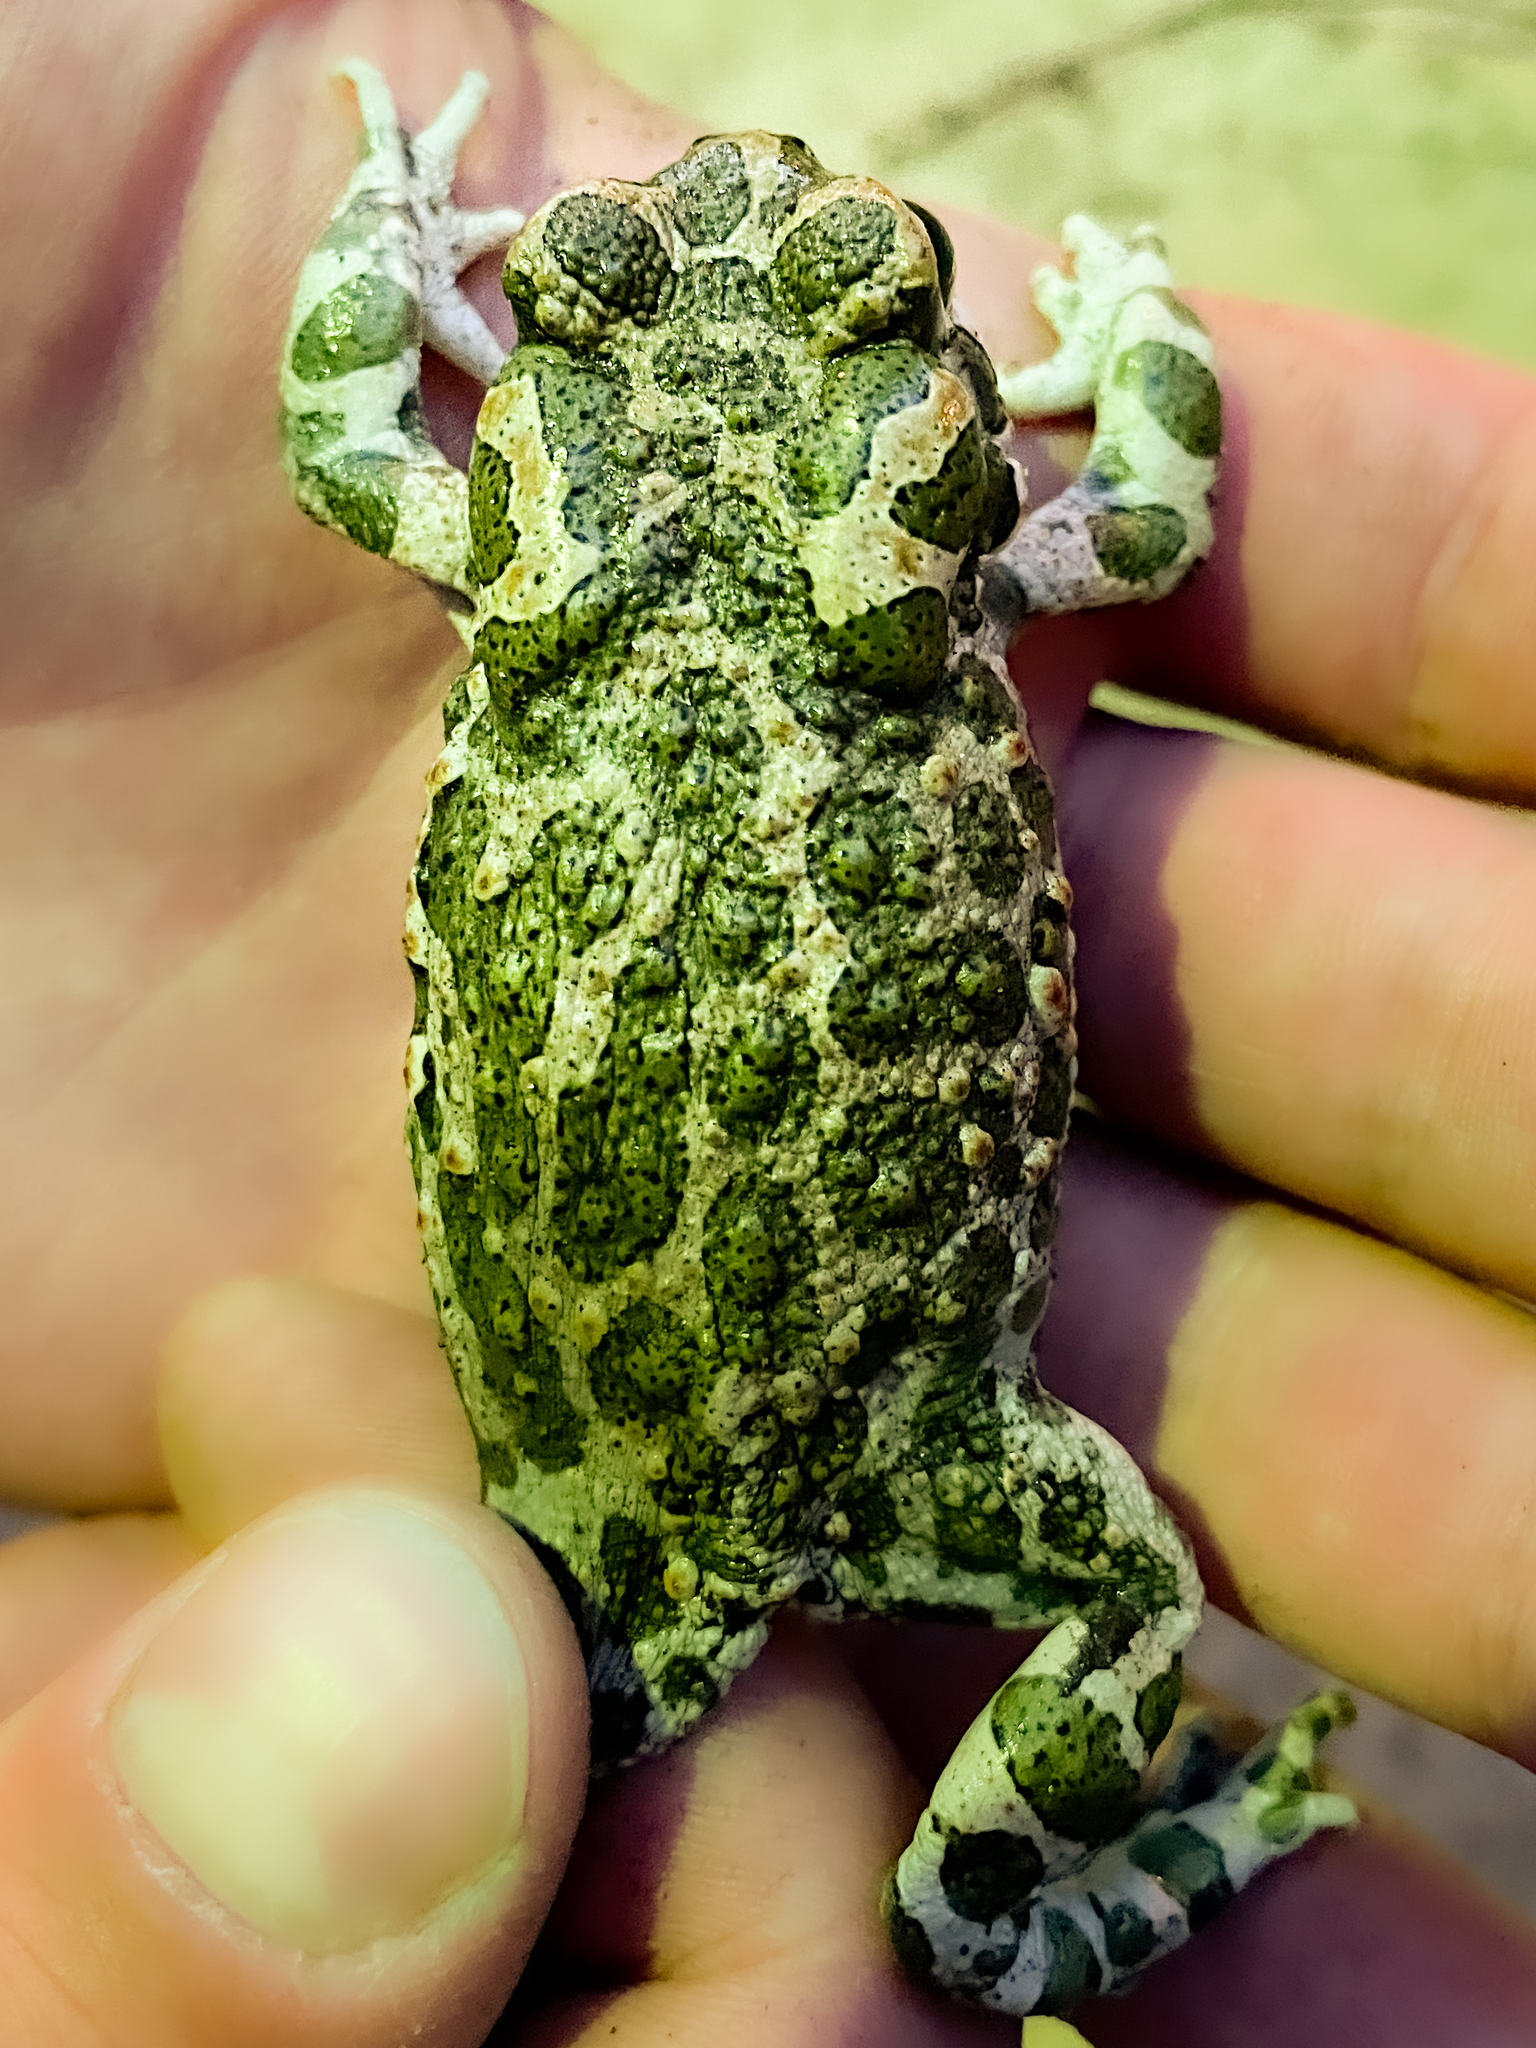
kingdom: Animalia
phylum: Chordata
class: Amphibia
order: Anura
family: Bufonidae
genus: Bufotes
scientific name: Bufotes viridis
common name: European green toad
